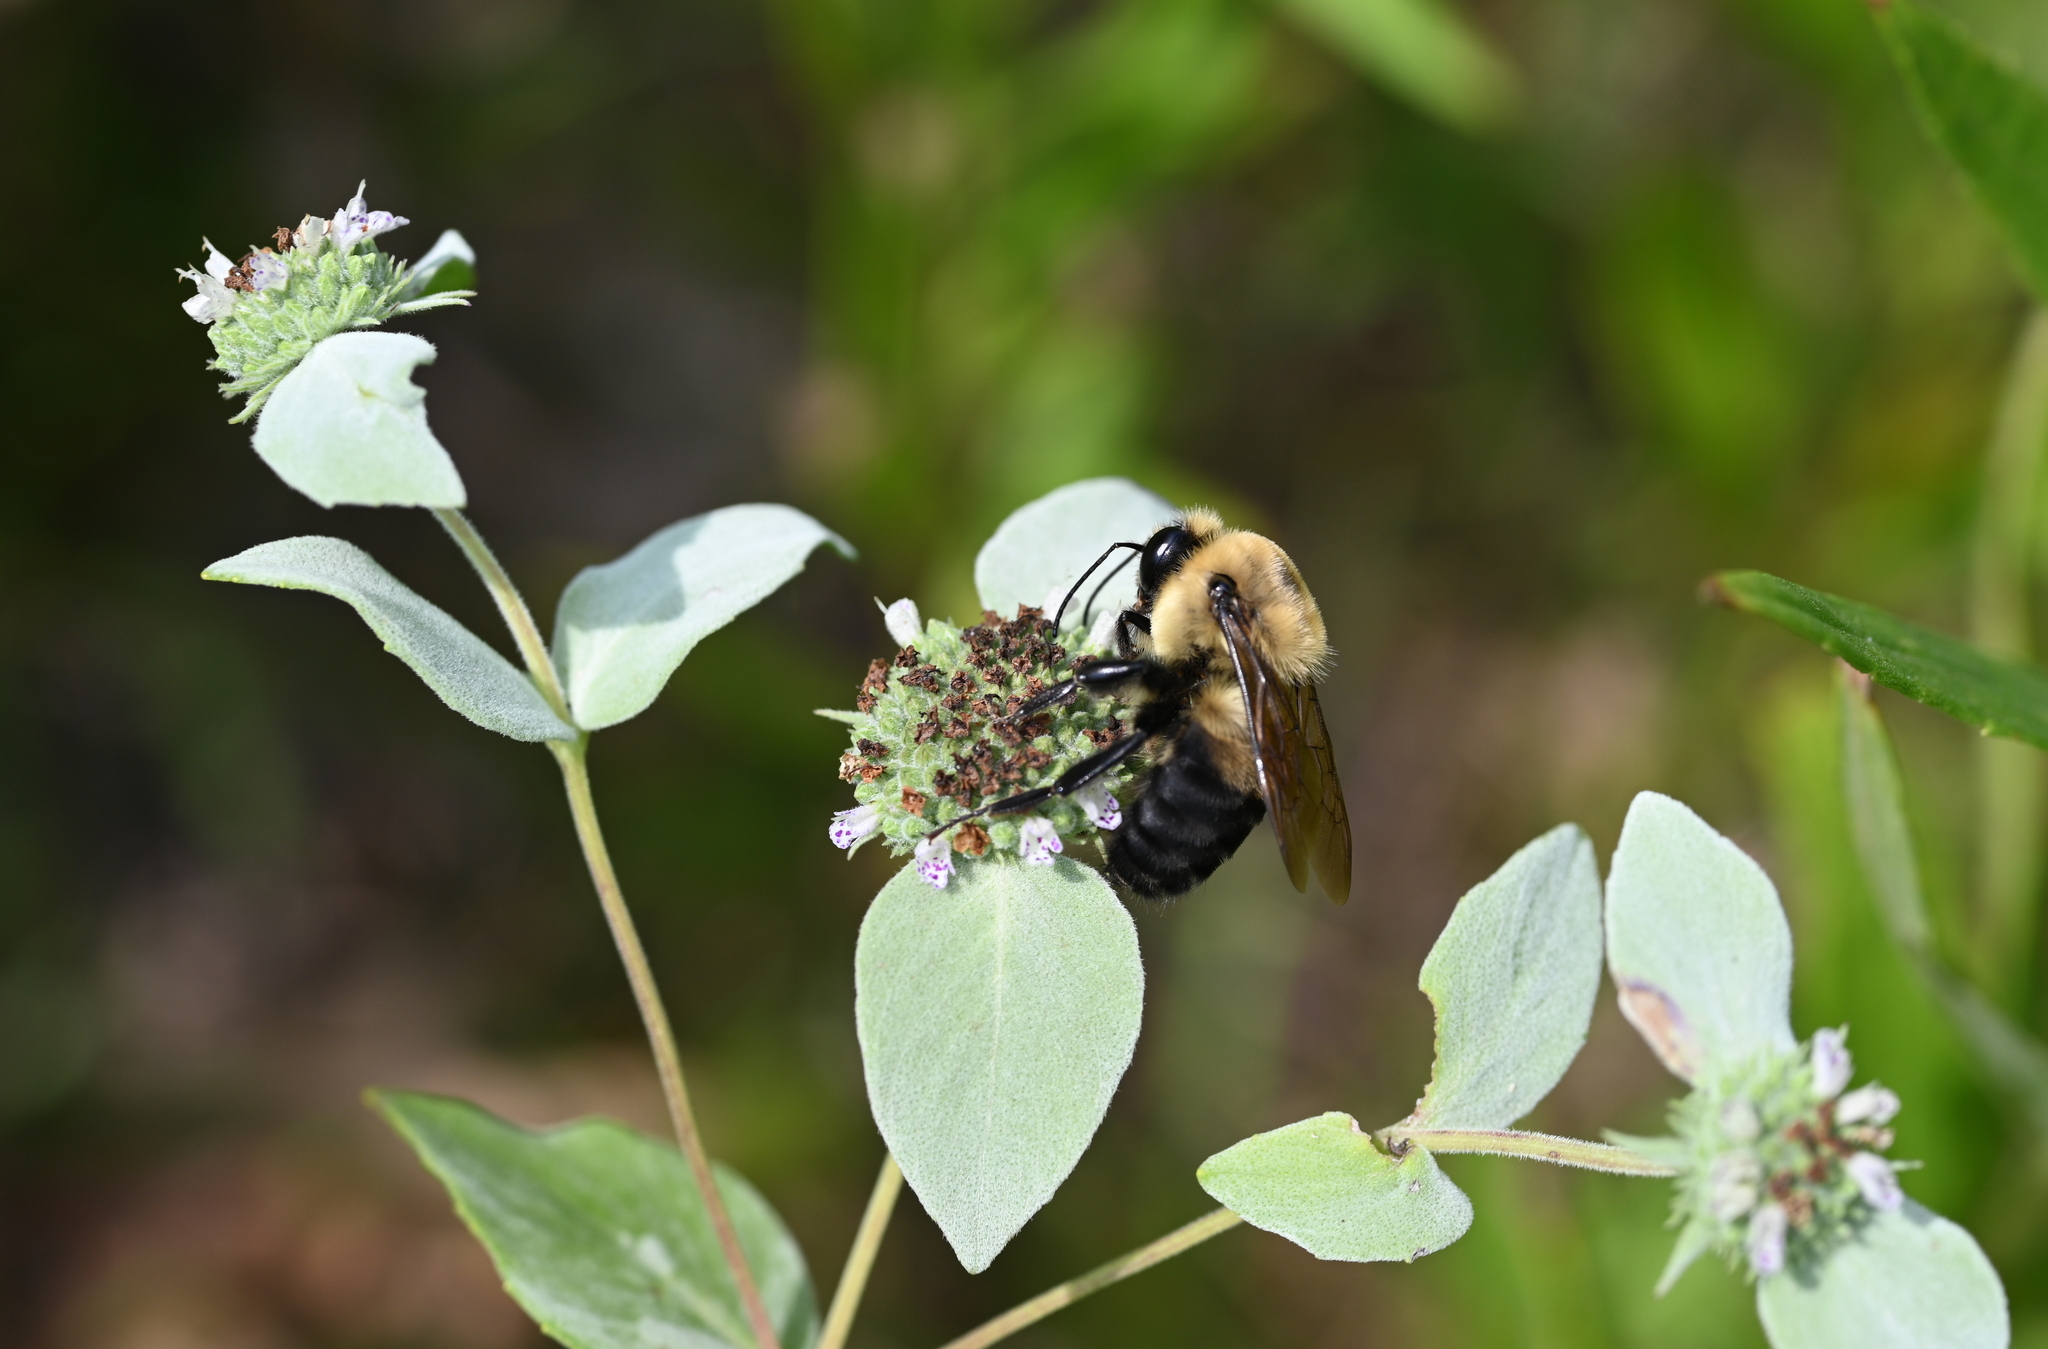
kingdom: Animalia
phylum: Arthropoda
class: Insecta
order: Hymenoptera
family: Apidae
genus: Bombus
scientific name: Bombus griseocollis
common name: Brown-belted bumble bee
